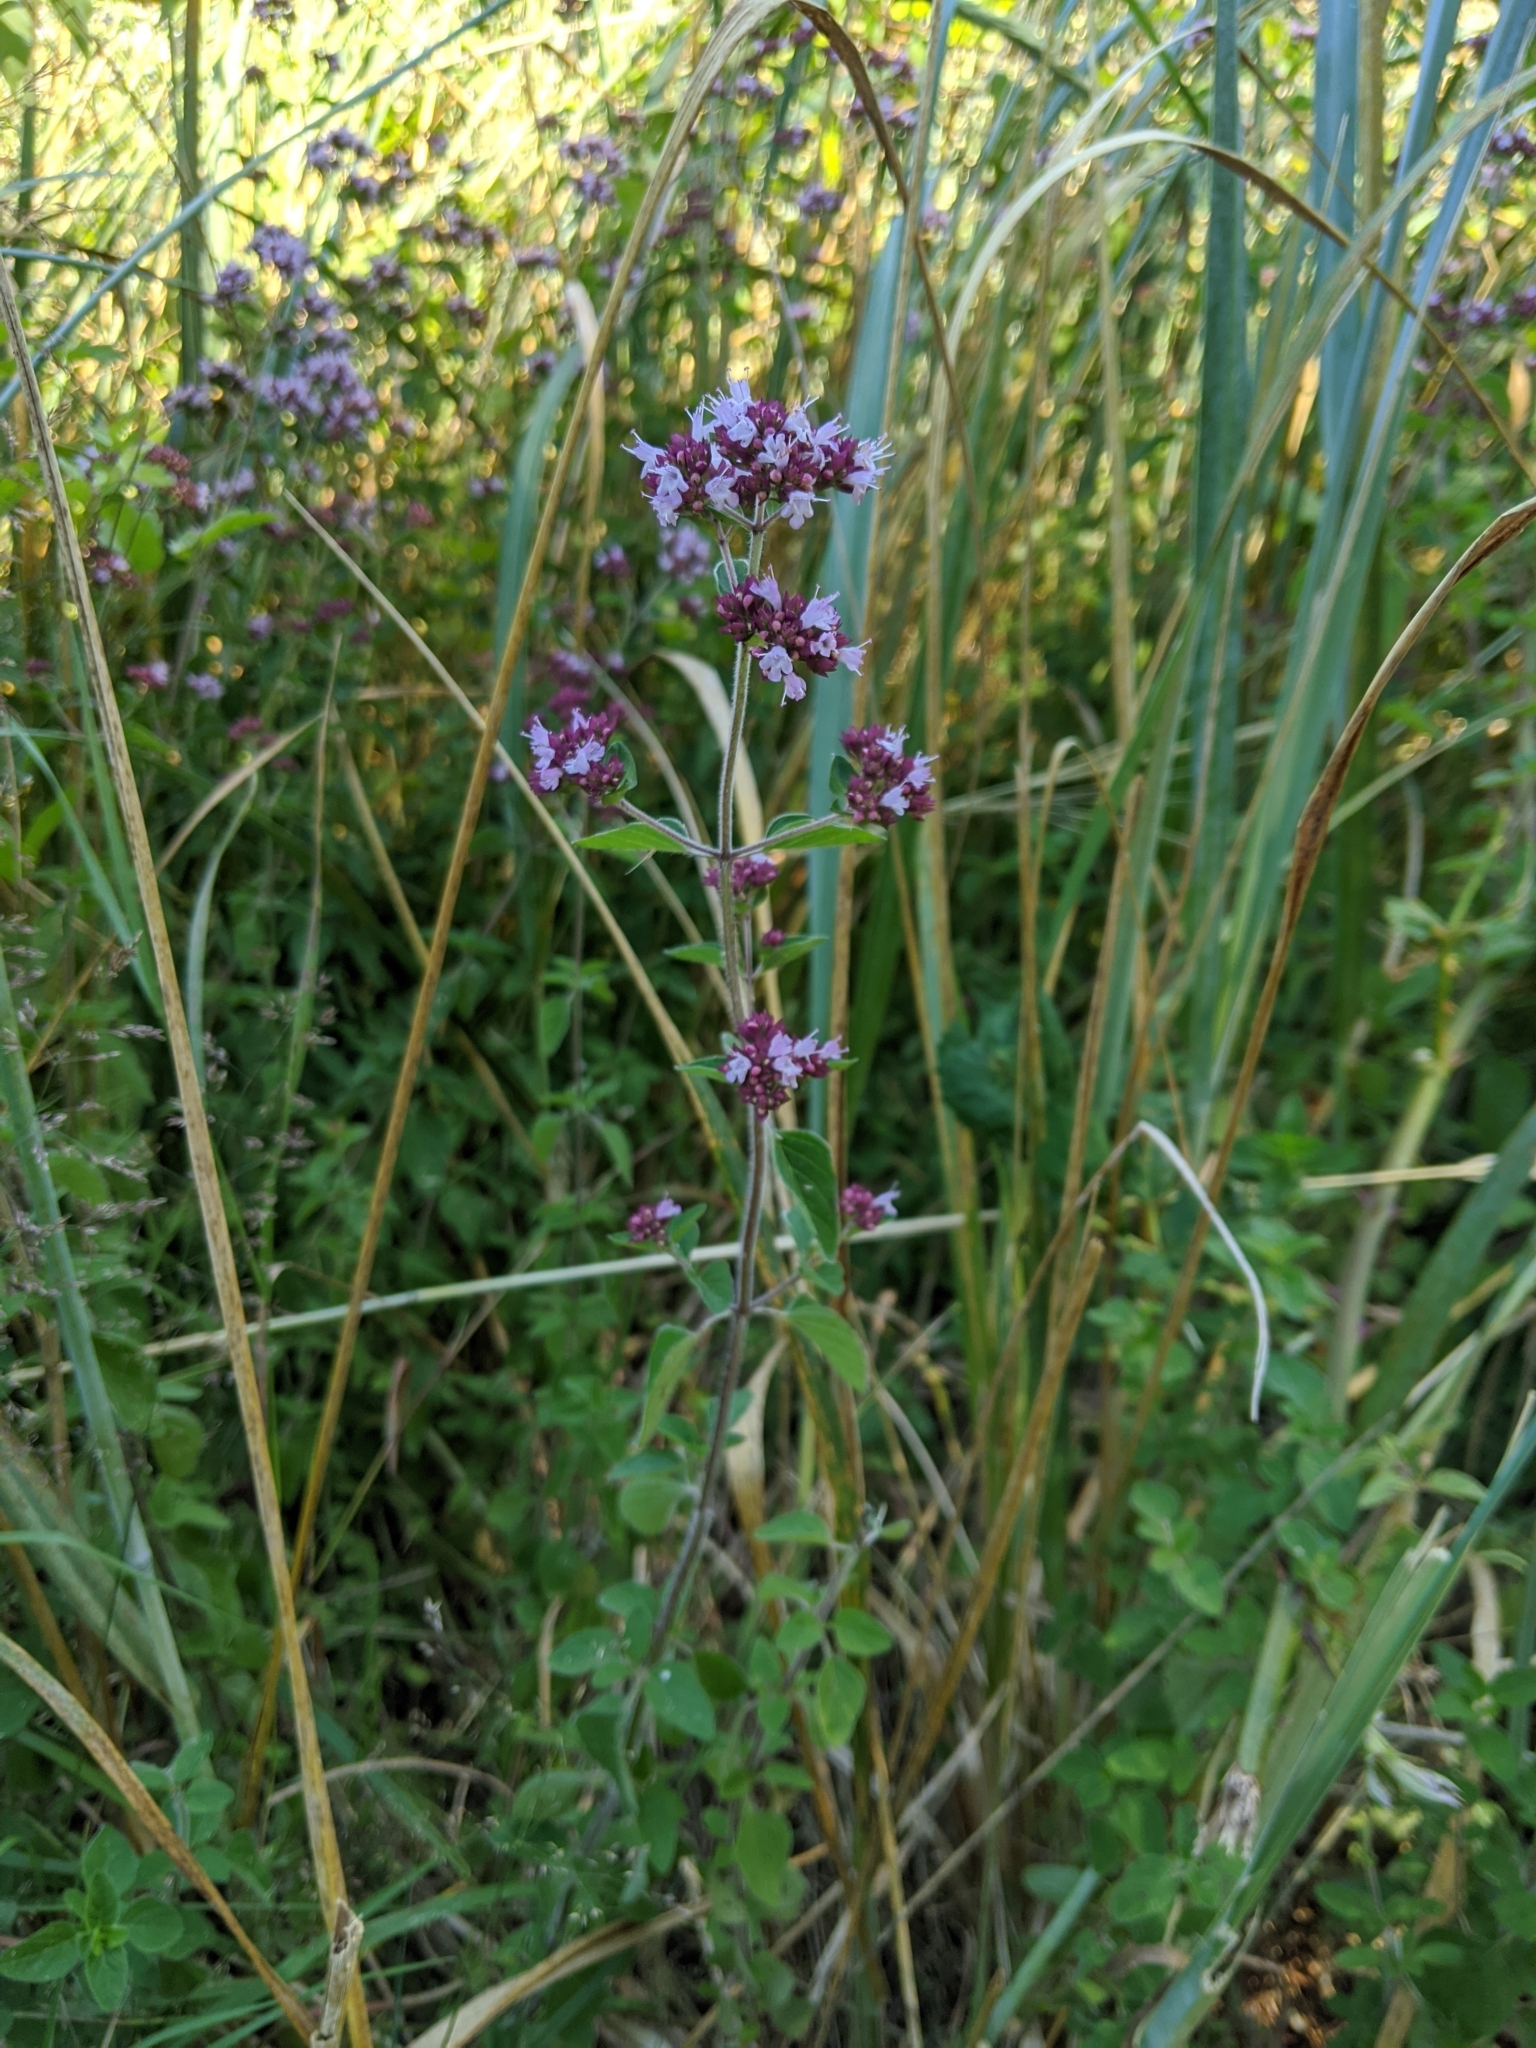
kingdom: Plantae
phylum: Tracheophyta
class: Magnoliopsida
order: Lamiales
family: Lamiaceae
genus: Origanum
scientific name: Origanum vulgare
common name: Wild marjoram
